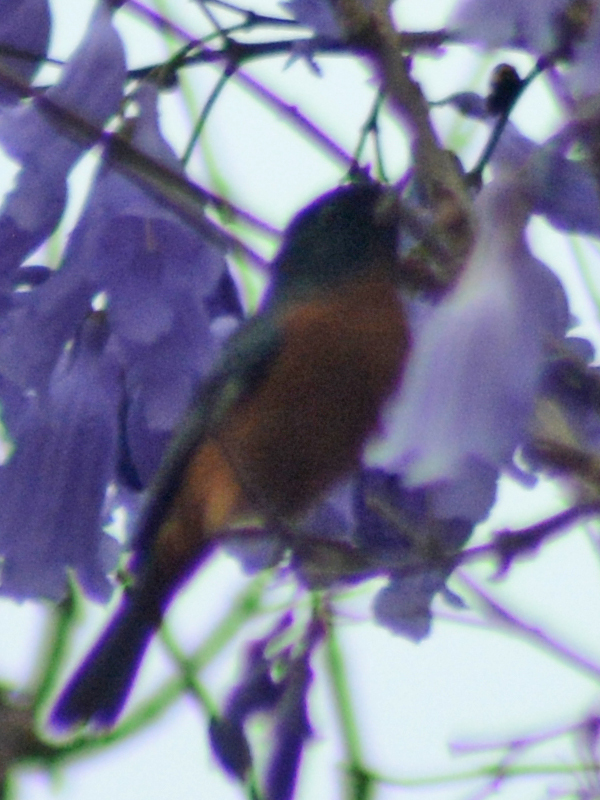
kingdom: Animalia
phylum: Chordata
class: Aves
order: Passeriformes
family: Thraupidae
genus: Diglossa
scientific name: Diglossa baritula
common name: Cinnamon-bellied flowerpiercer
